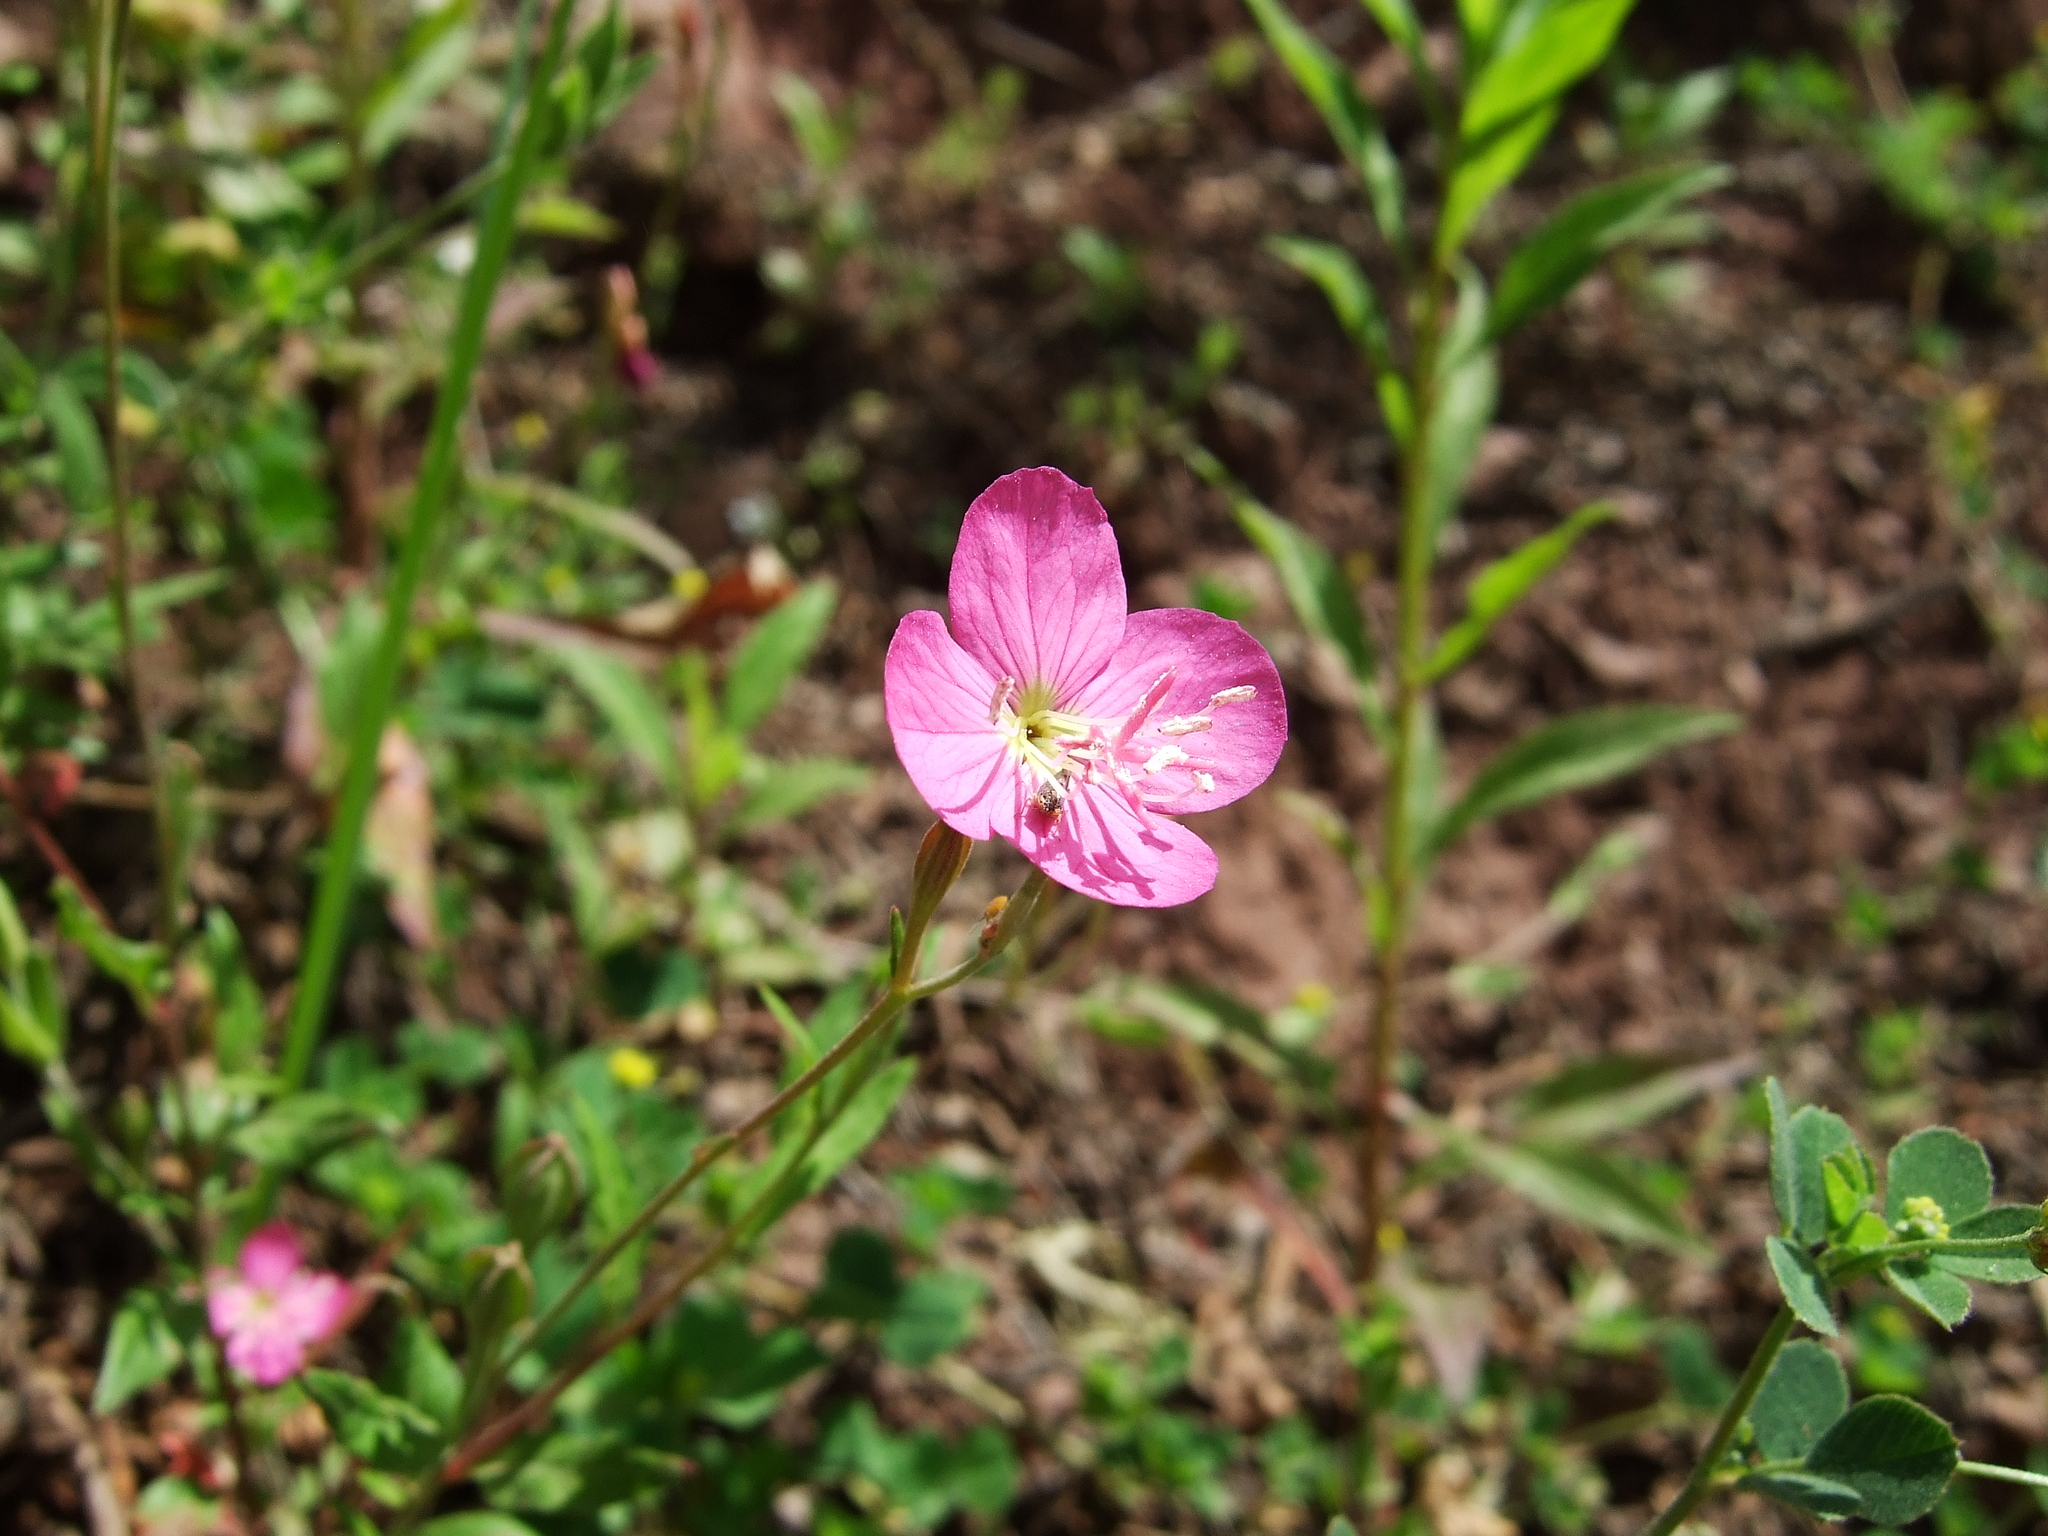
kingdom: Plantae
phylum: Tracheophyta
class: Magnoliopsida
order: Myrtales
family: Onagraceae
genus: Oenothera
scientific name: Oenothera rosea
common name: Rosy evening-primrose
